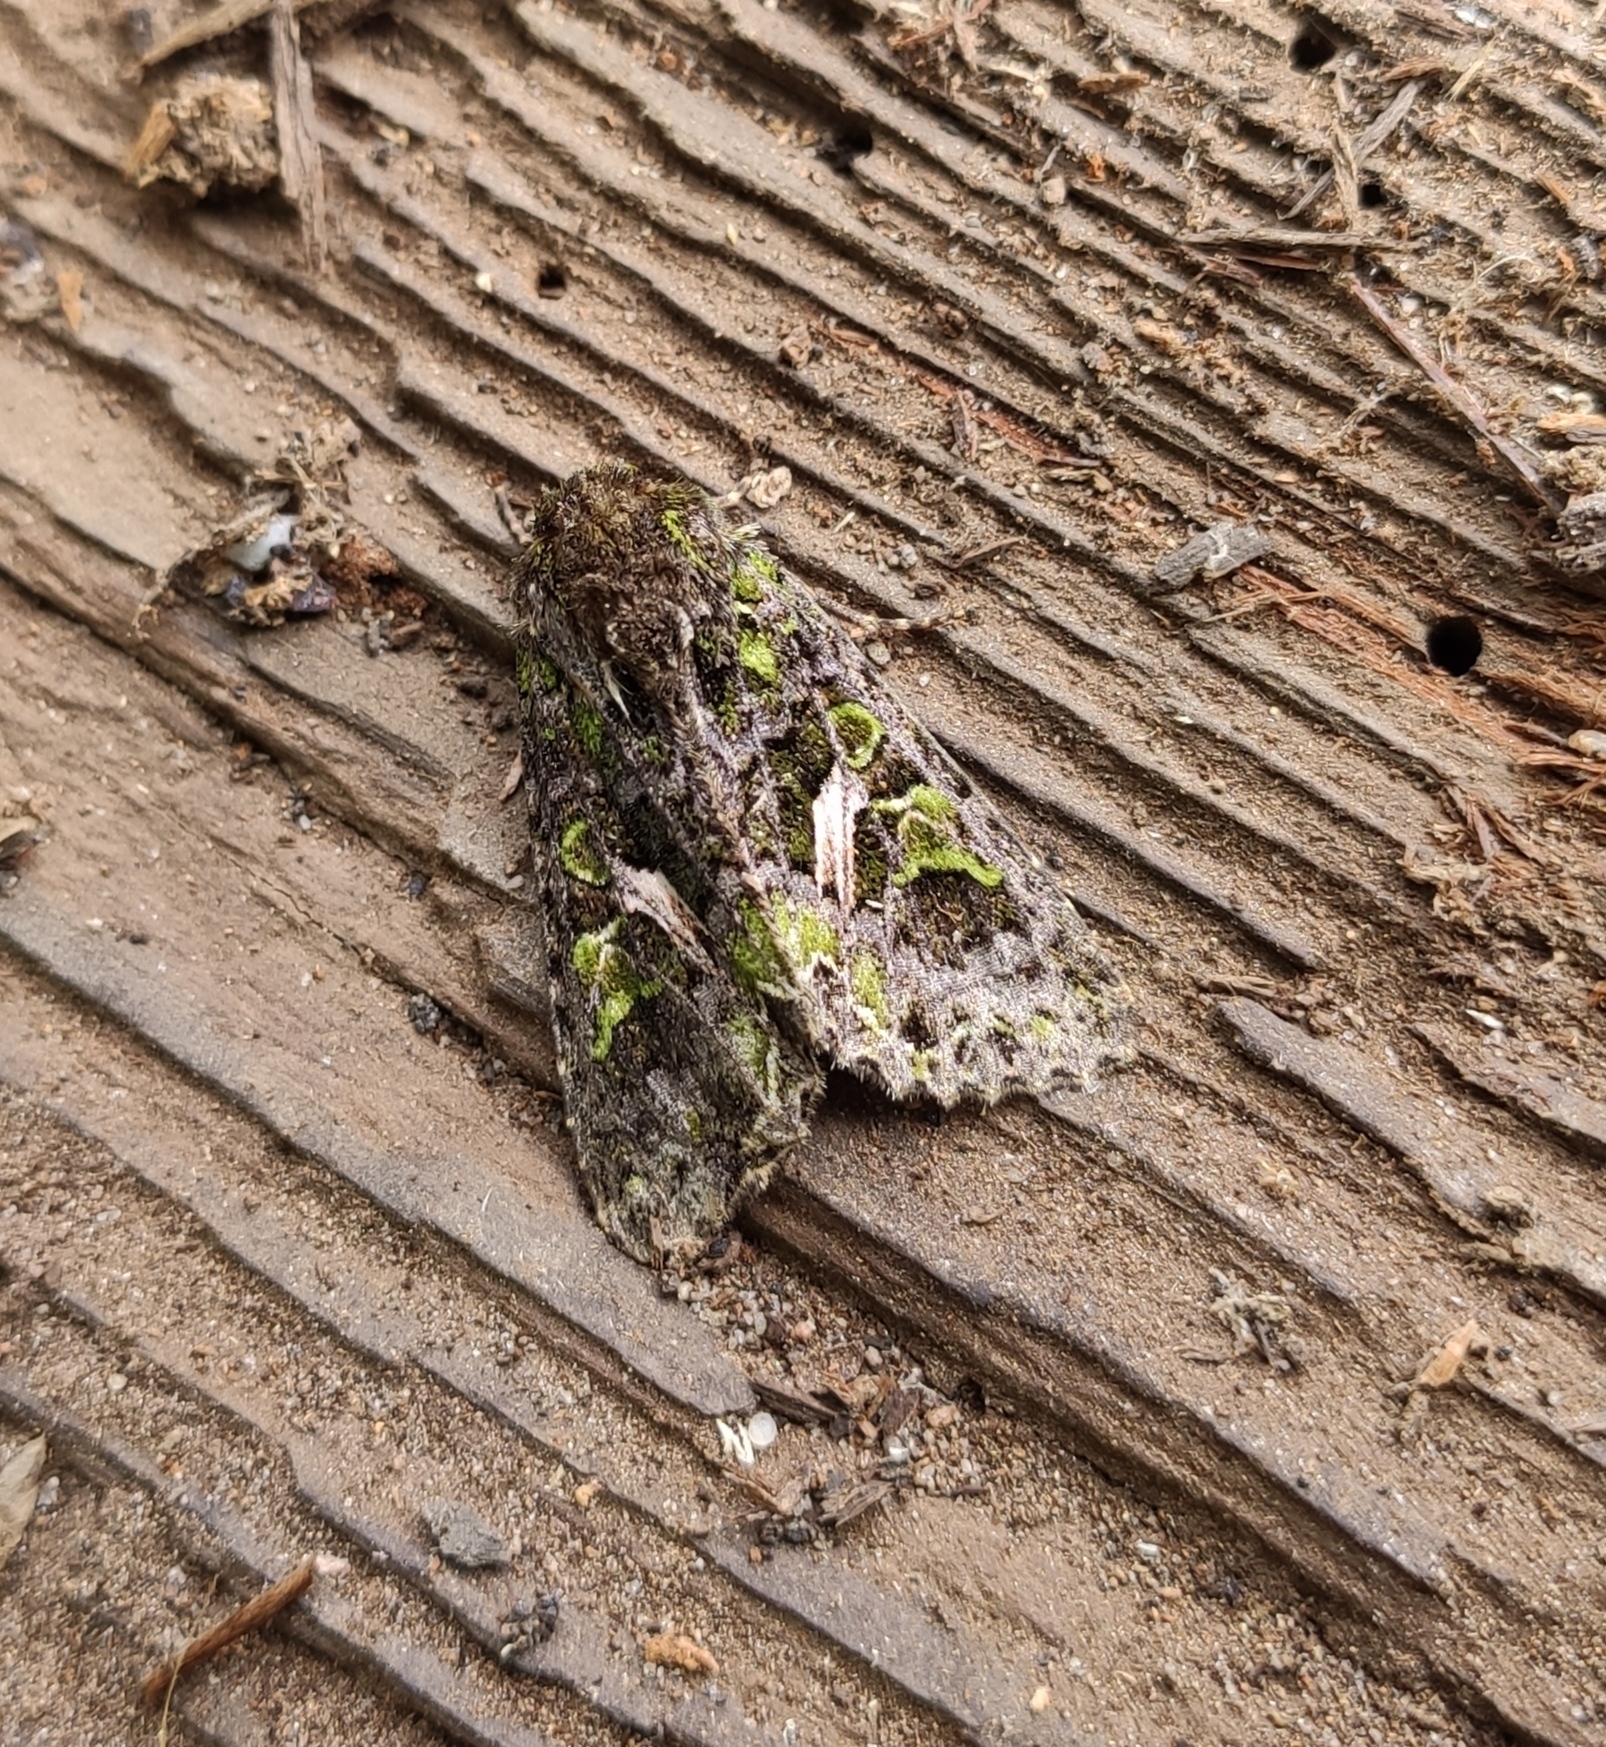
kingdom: Animalia
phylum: Arthropoda
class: Insecta
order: Lepidoptera
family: Noctuidae
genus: Trachea
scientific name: Trachea atriplicis
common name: Orache moth
